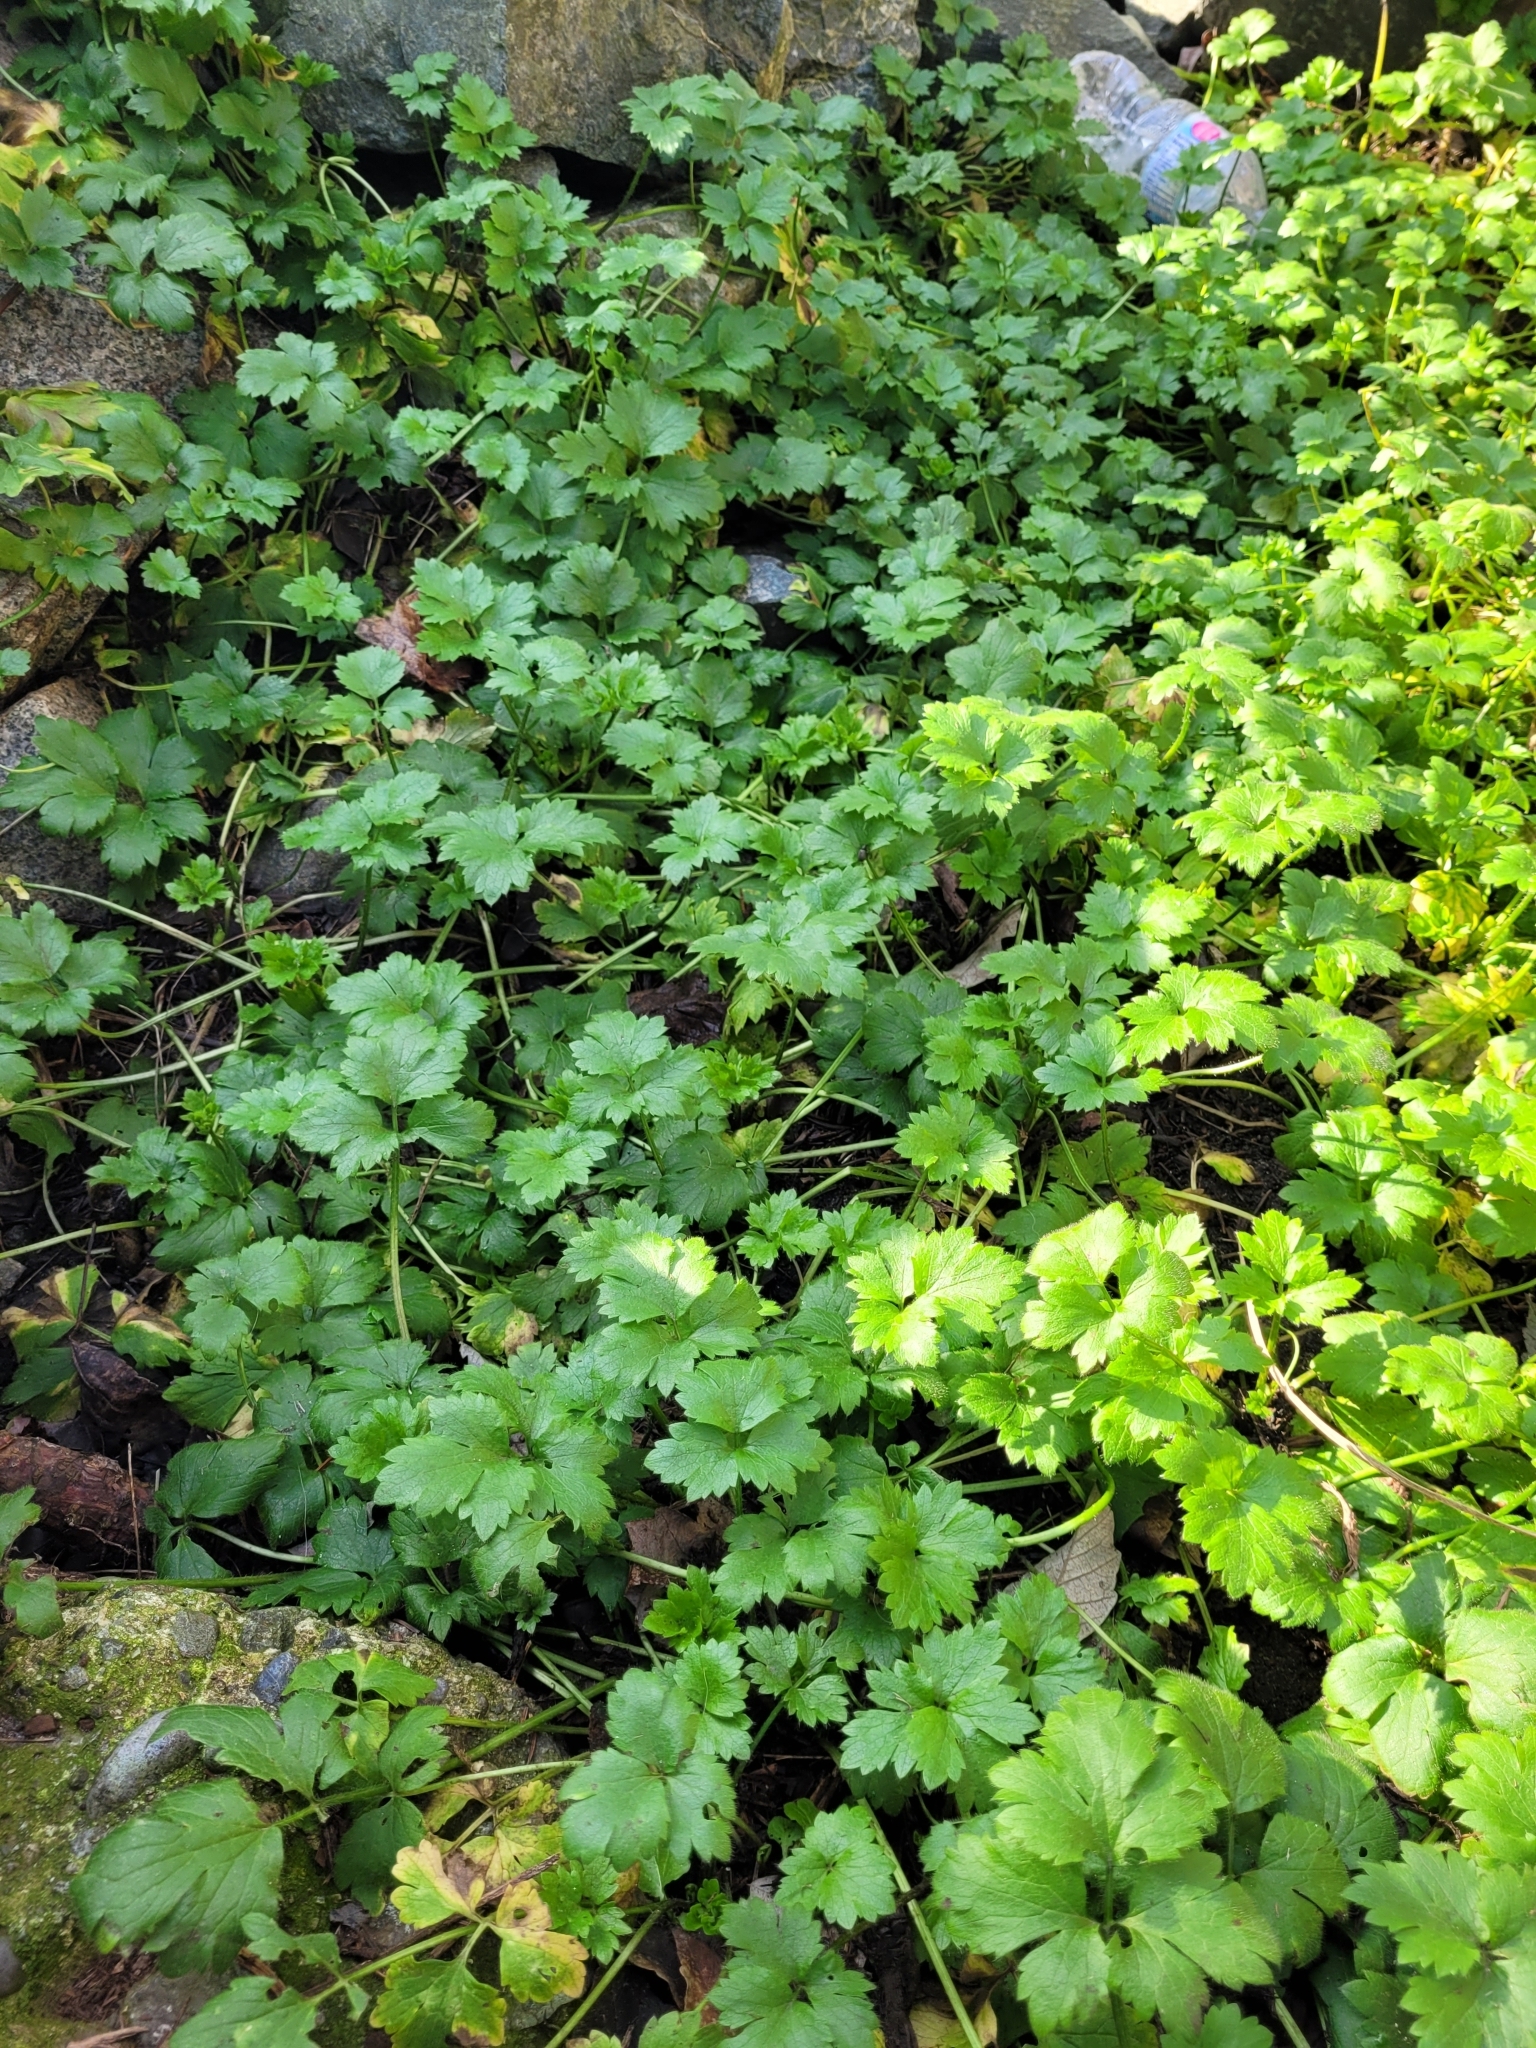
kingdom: Plantae
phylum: Tracheophyta
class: Magnoliopsida
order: Ranunculales
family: Ranunculaceae
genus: Ranunculus
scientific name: Ranunculus repens
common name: Creeping buttercup
